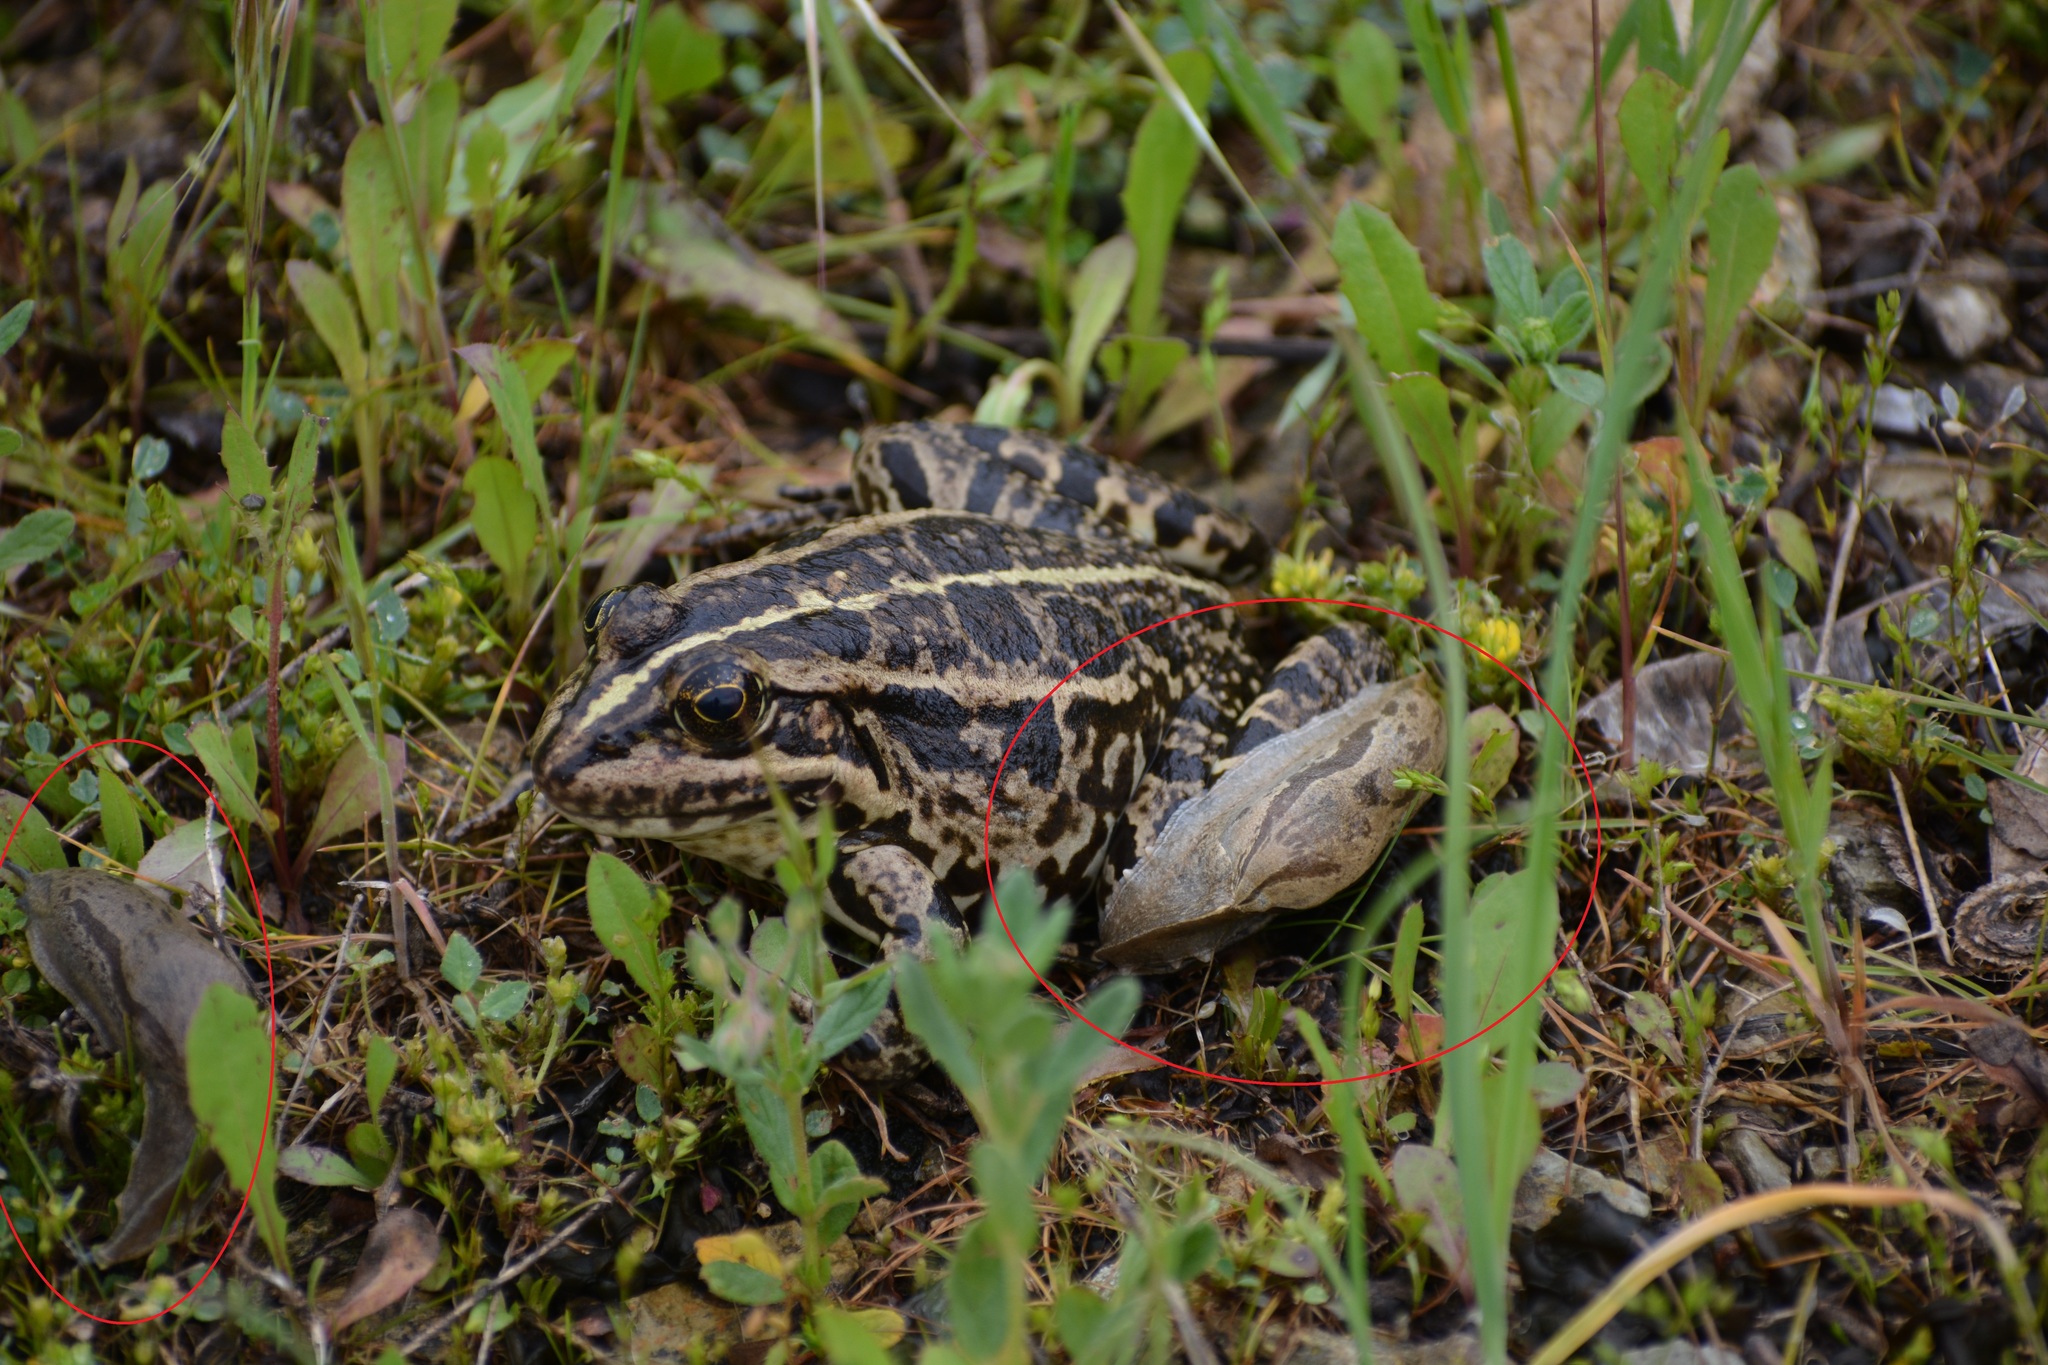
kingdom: Animalia
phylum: Mollusca
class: Gastropoda
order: Stylommatophora
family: Parmacellidae
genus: Drusia
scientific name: Drusia ibera
